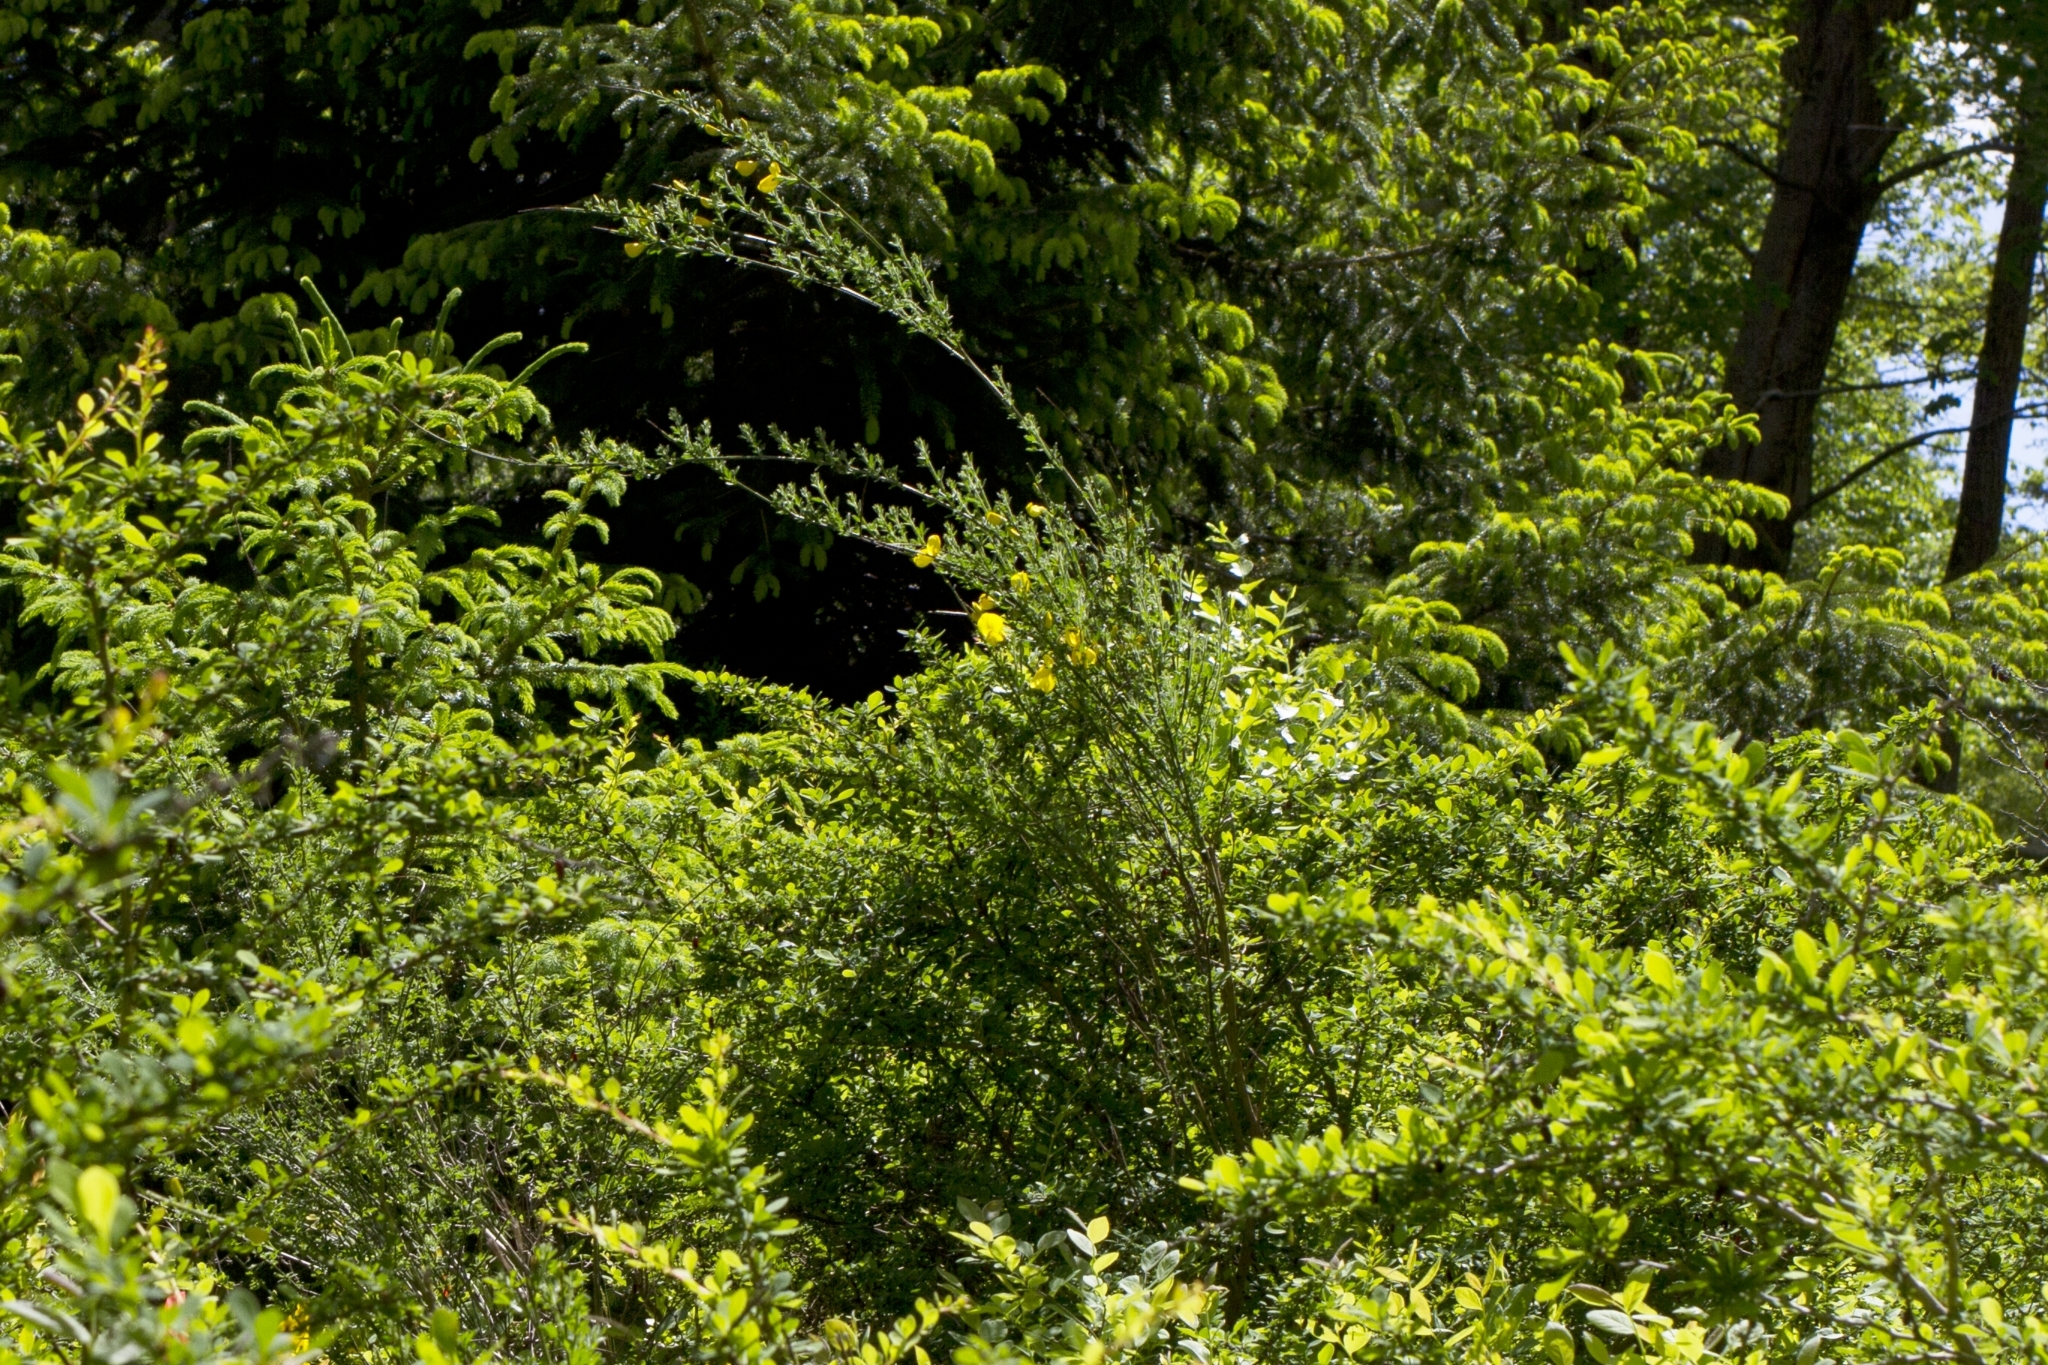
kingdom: Plantae
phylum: Tracheophyta
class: Magnoliopsida
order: Fabales
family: Fabaceae
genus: Cytisus
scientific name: Cytisus scoparius
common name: Scotch broom
